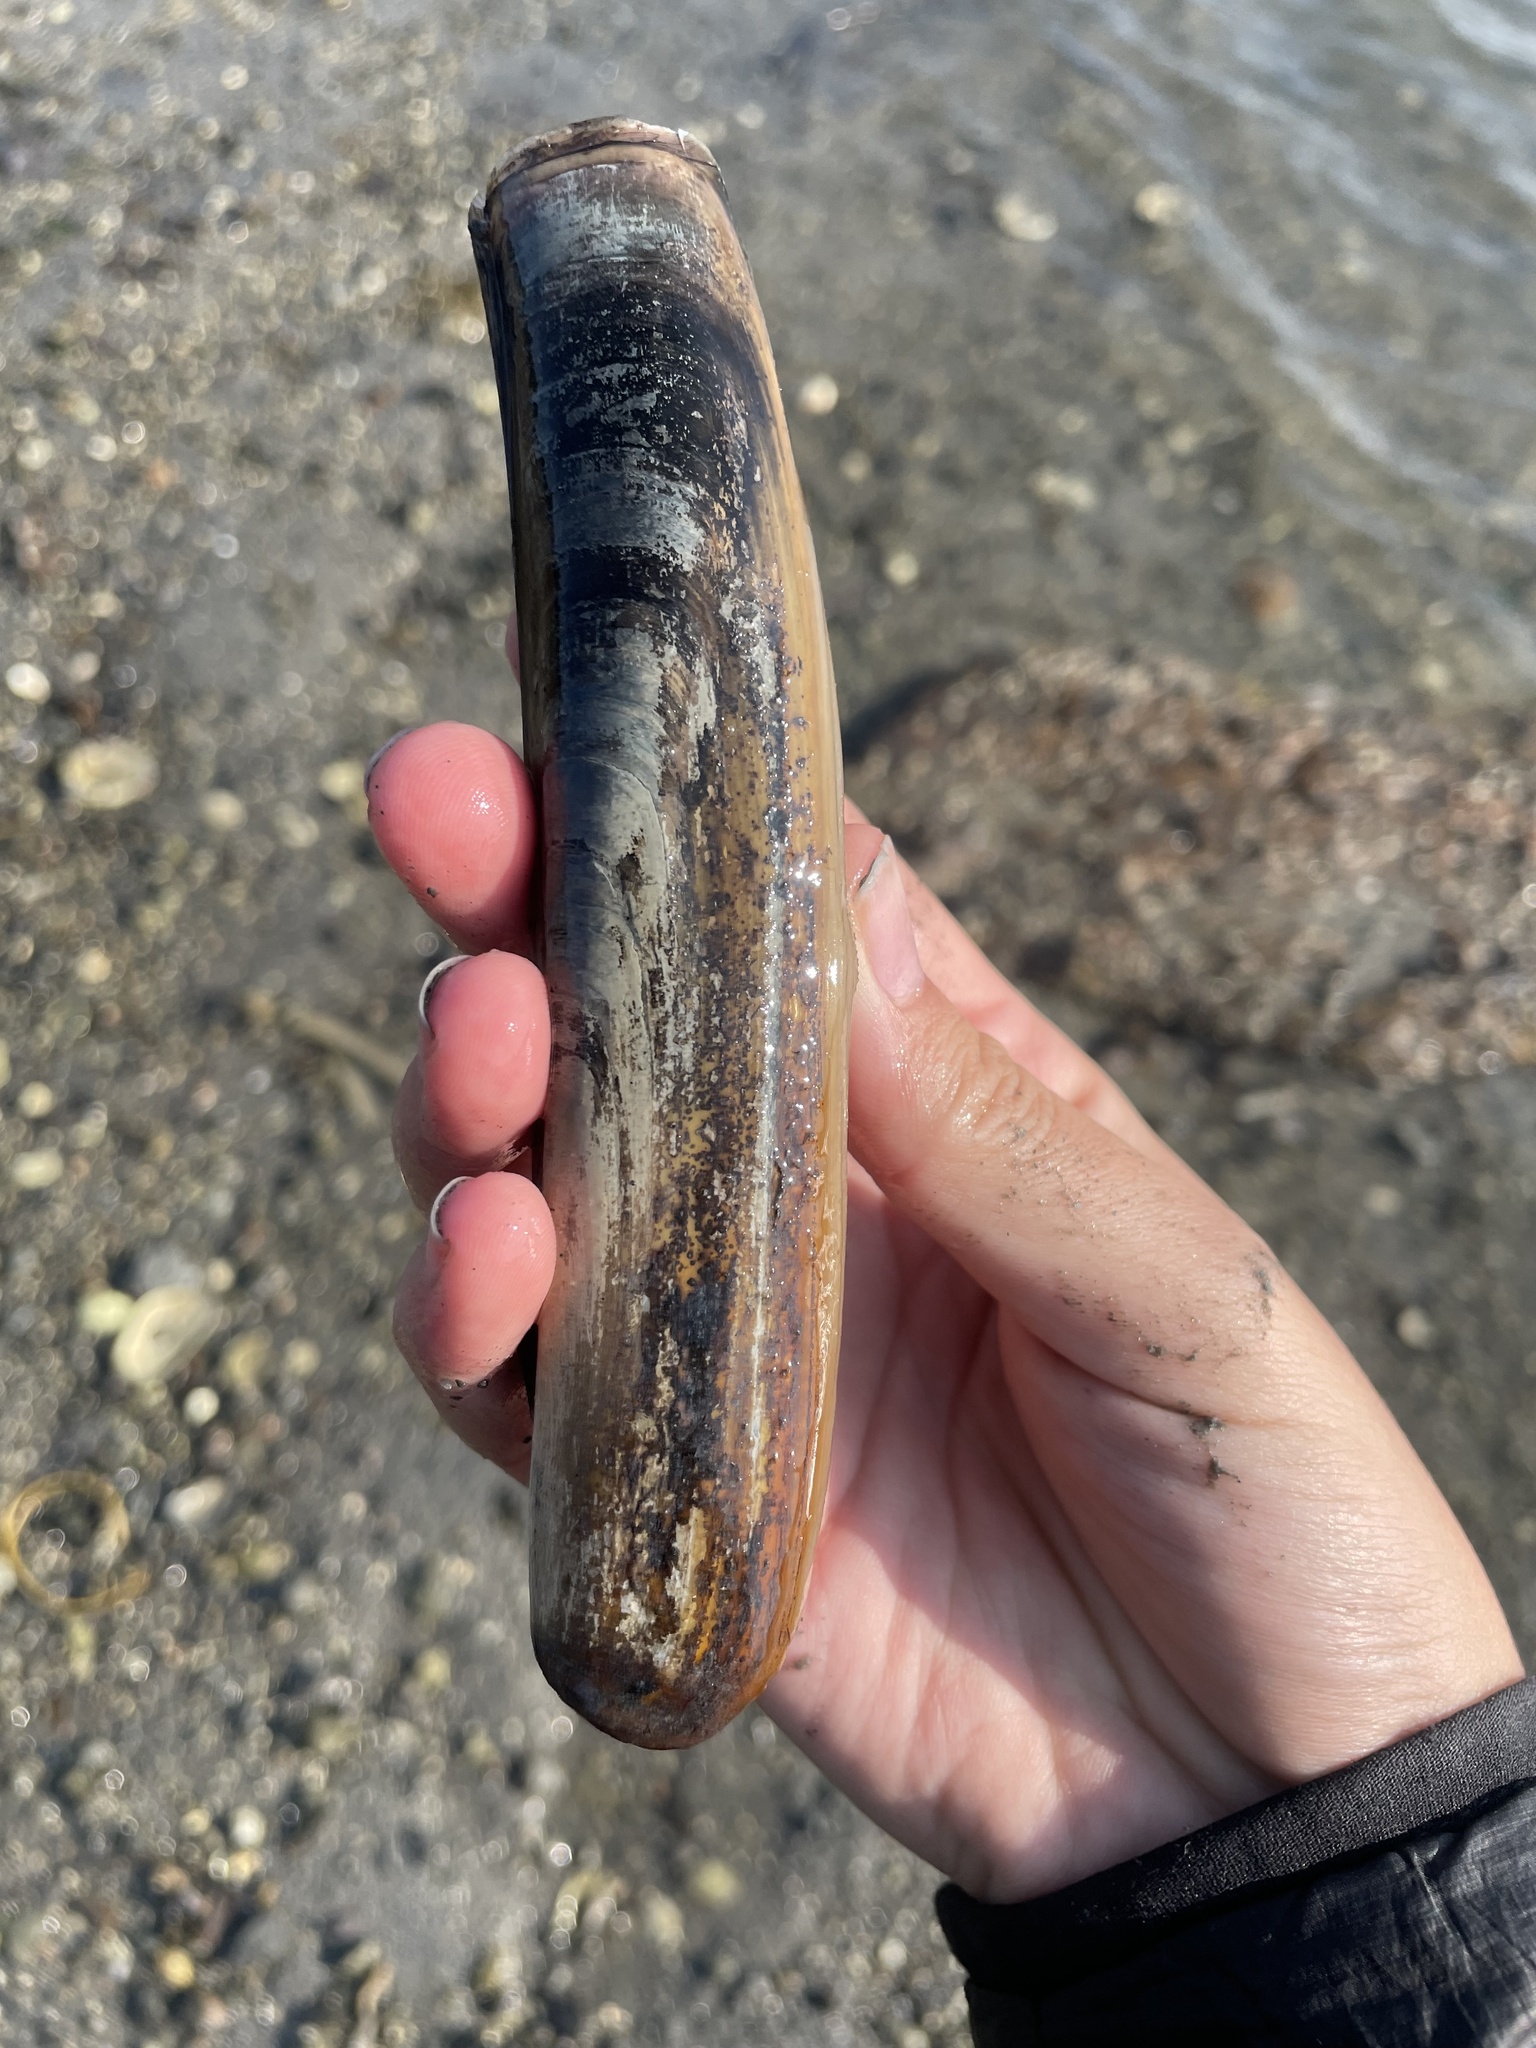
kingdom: Animalia
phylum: Mollusca
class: Bivalvia
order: Adapedonta
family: Pharidae
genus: Ensis
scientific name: Ensis leei
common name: American jack knife clam
